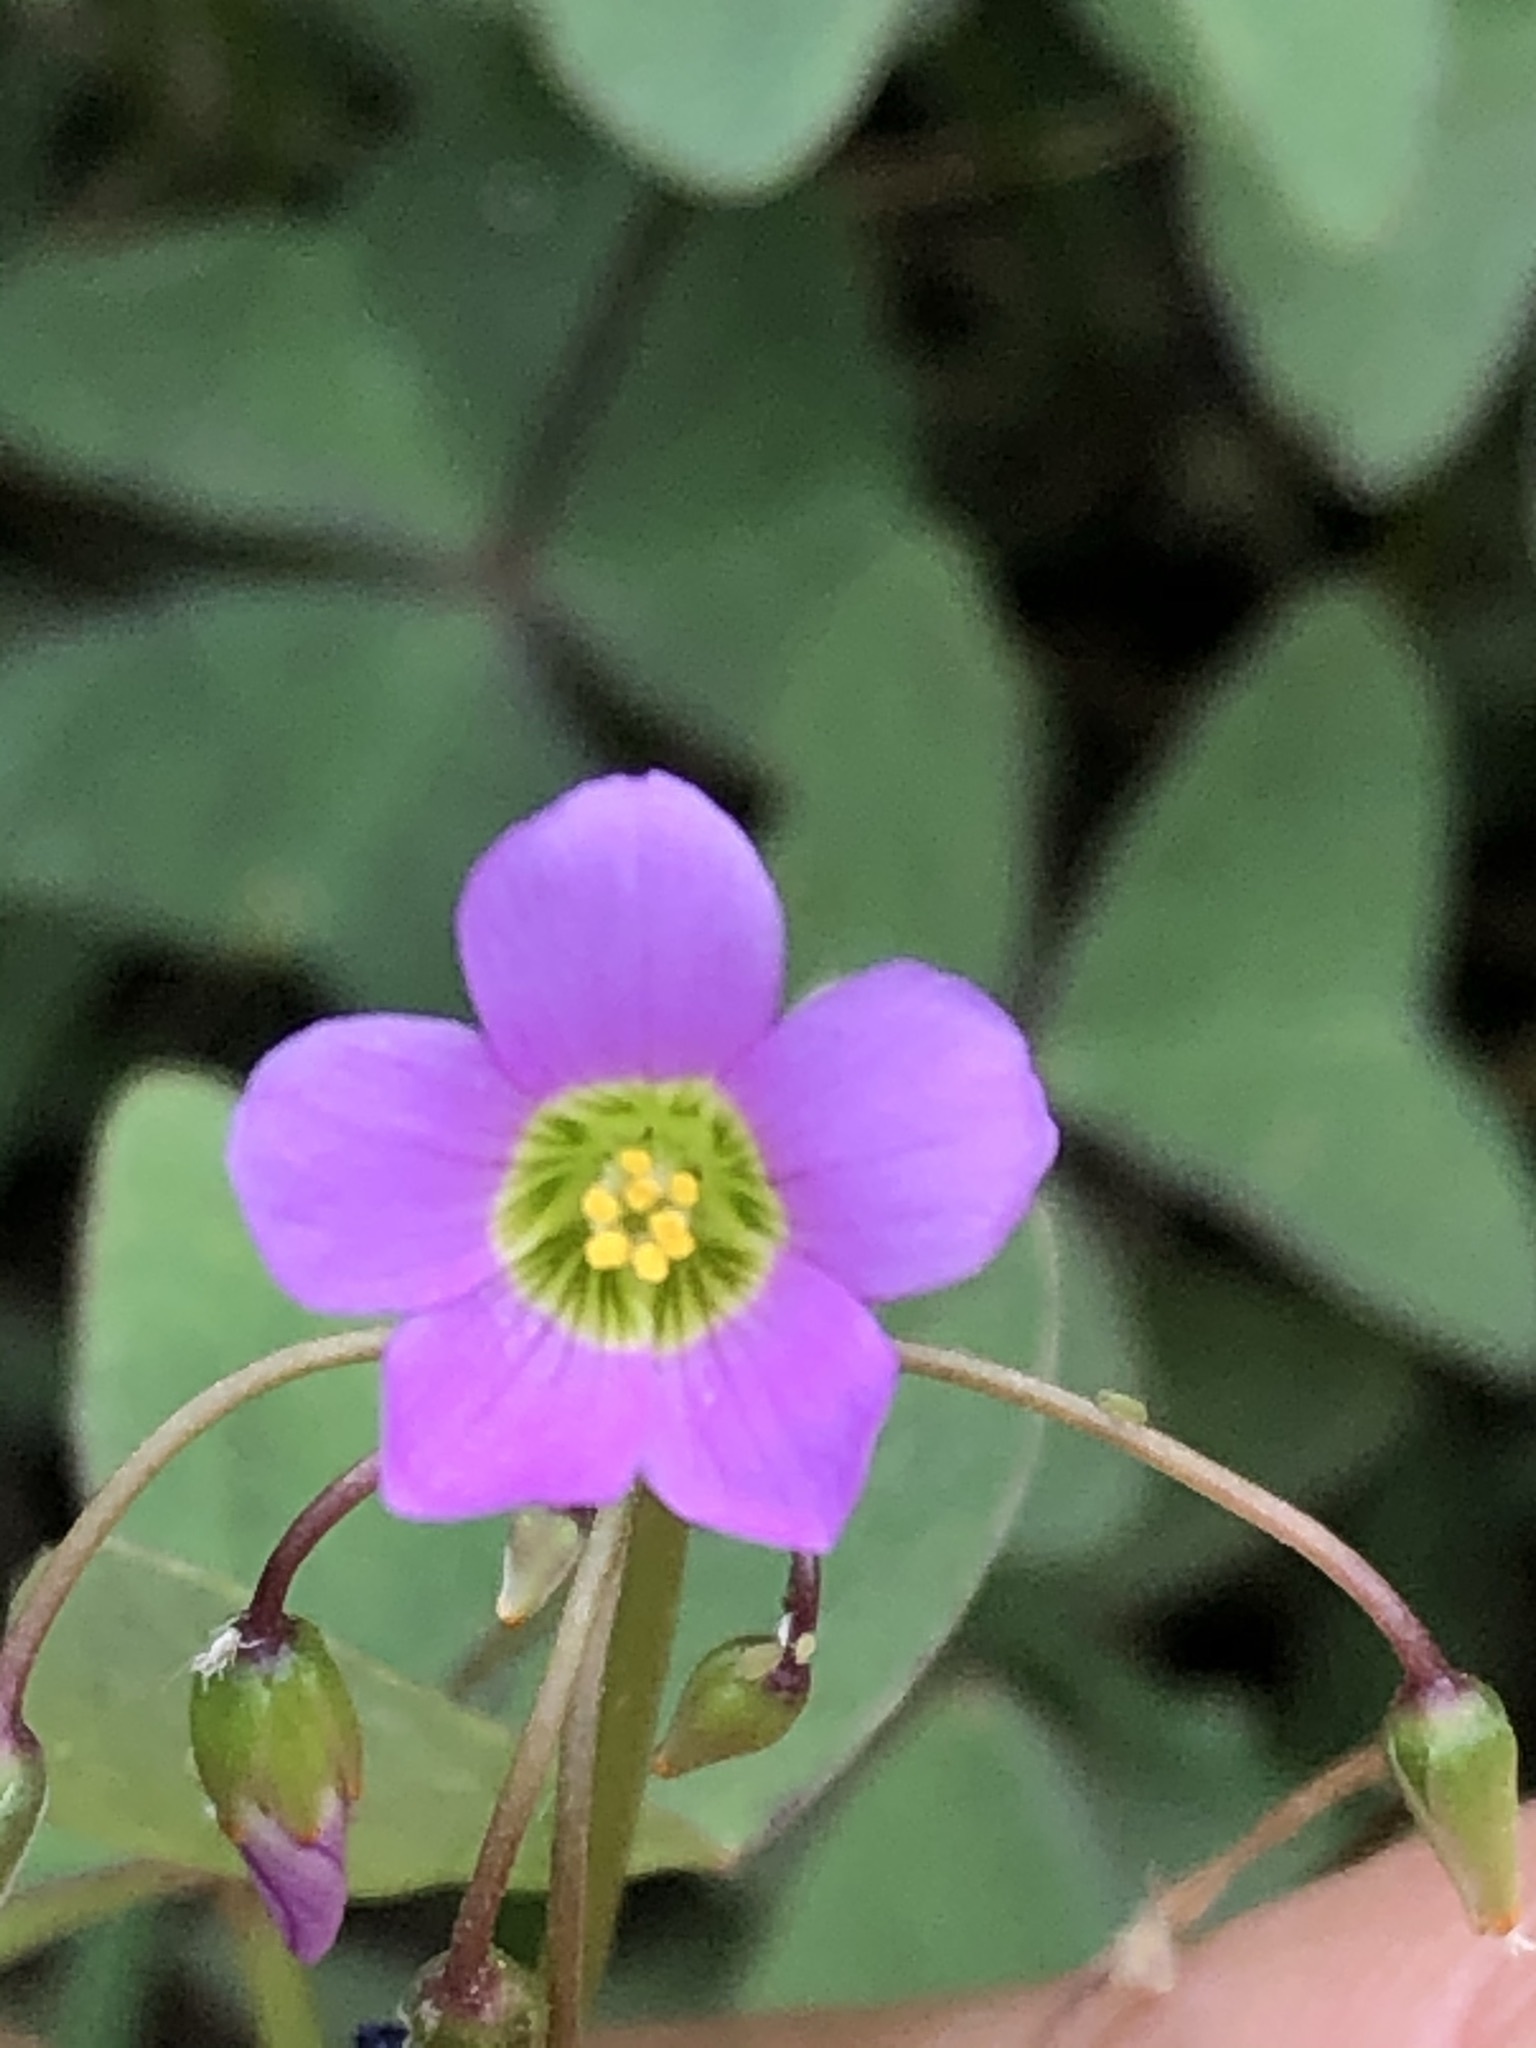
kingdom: Plantae
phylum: Tracheophyta
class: Magnoliopsida
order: Oxalidales
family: Oxalidaceae
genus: Oxalis
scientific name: Oxalis latifolia
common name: Garden pink-sorrel
